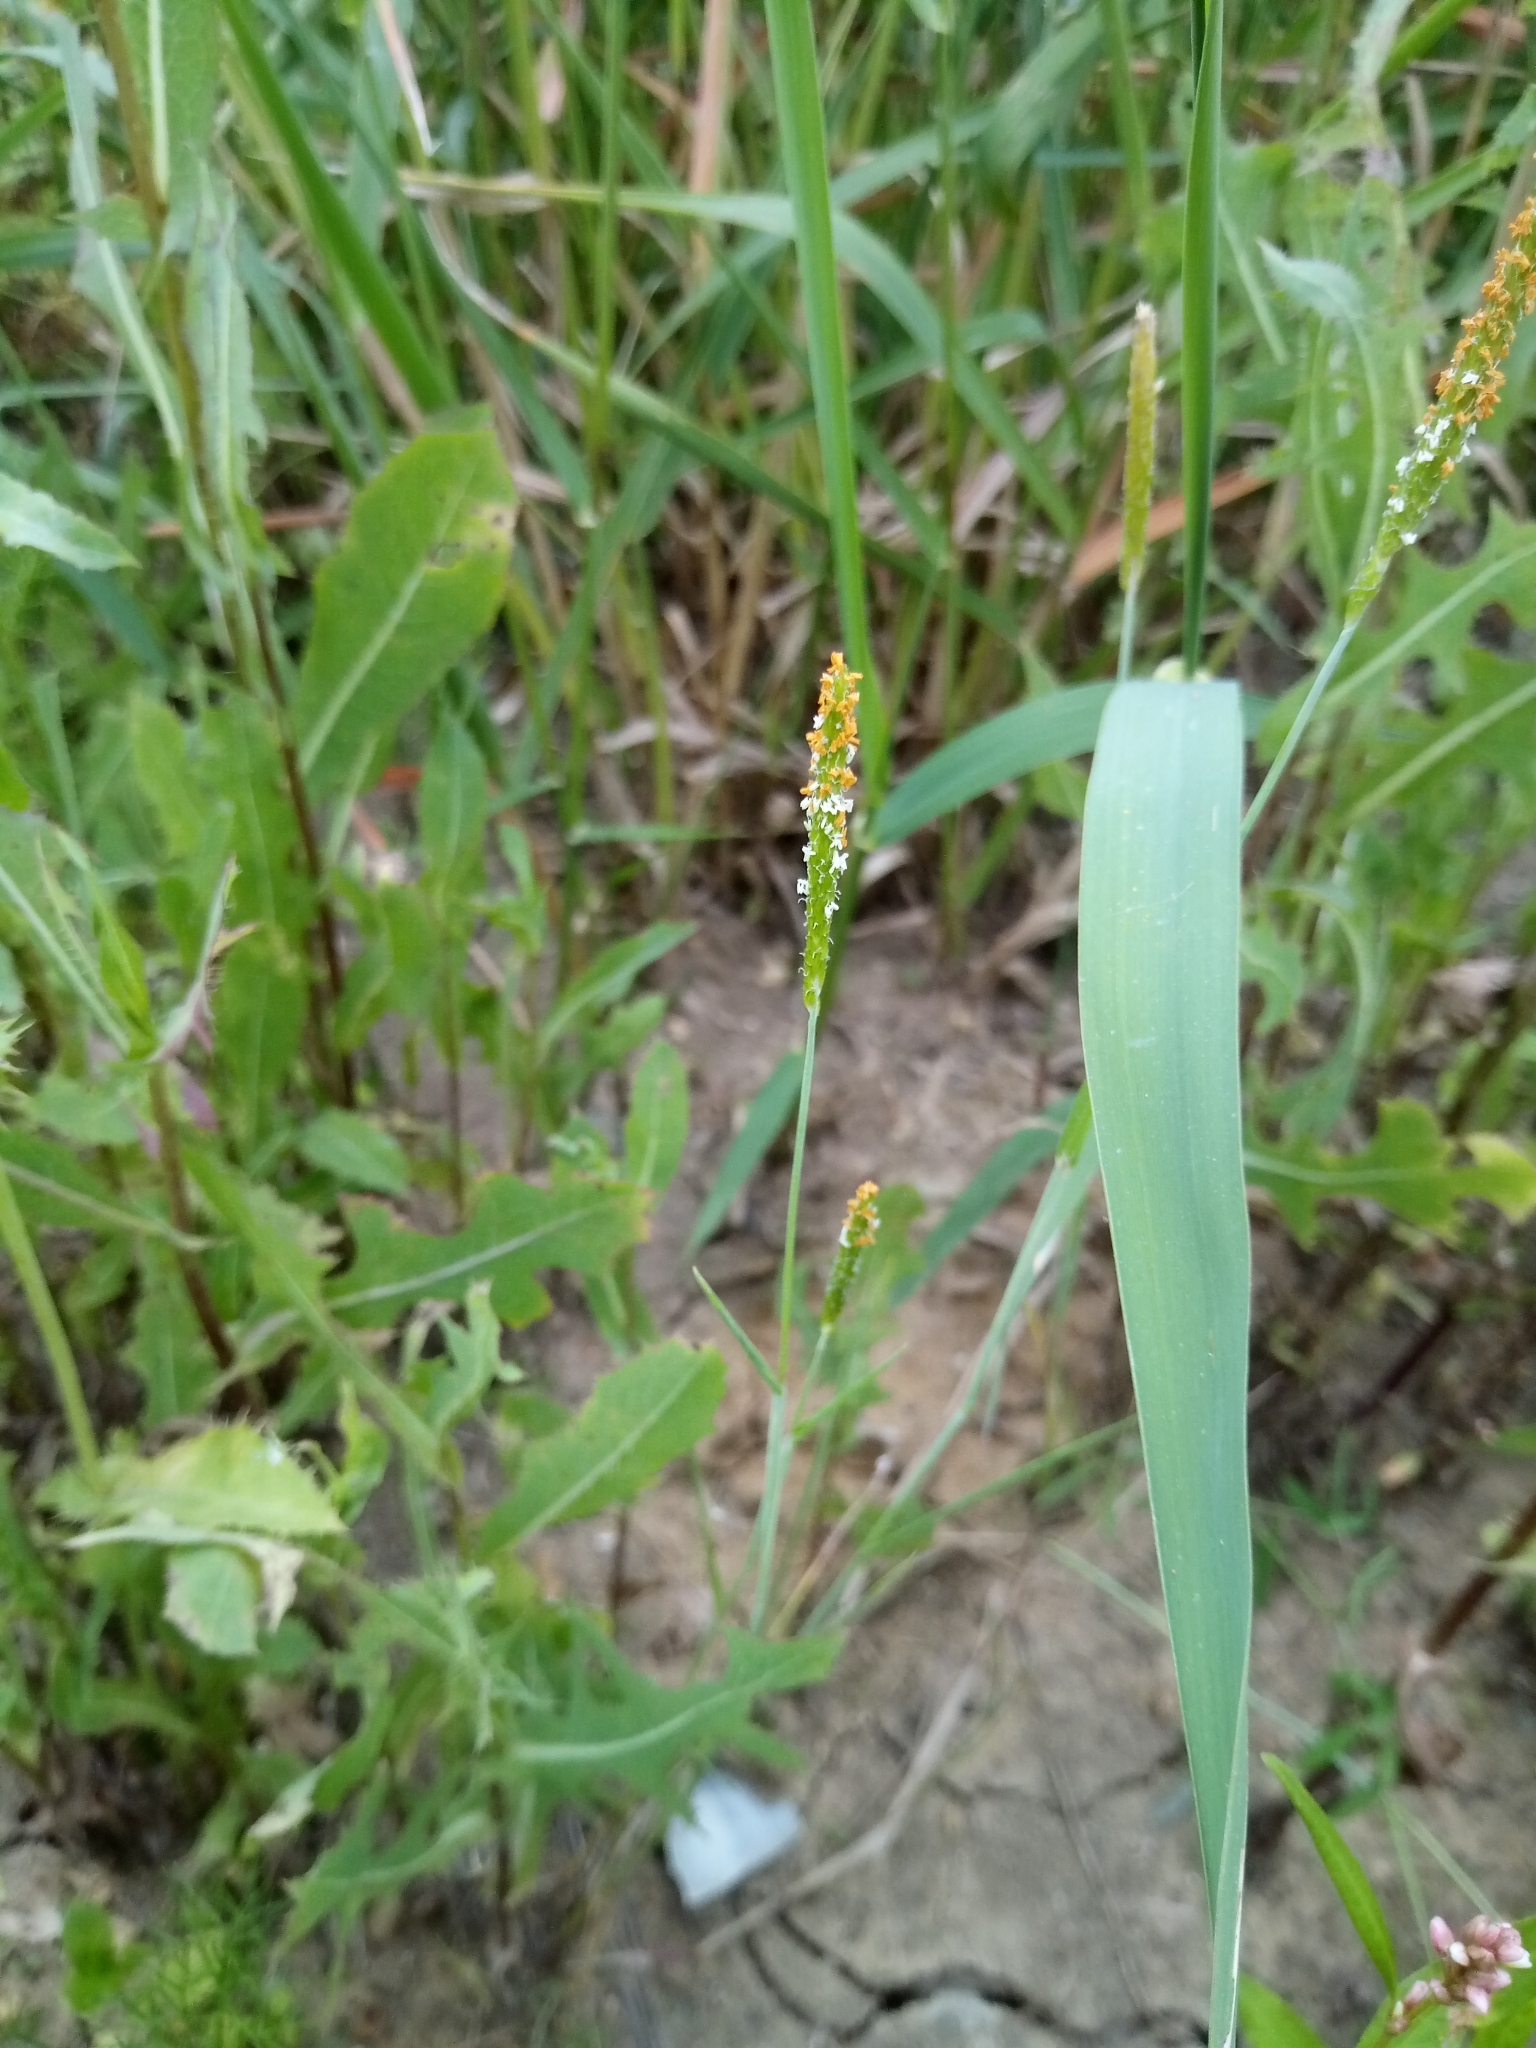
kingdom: Plantae
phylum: Tracheophyta
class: Liliopsida
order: Poales
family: Poaceae
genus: Alopecurus
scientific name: Alopecurus aequalis
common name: Orange foxtail
